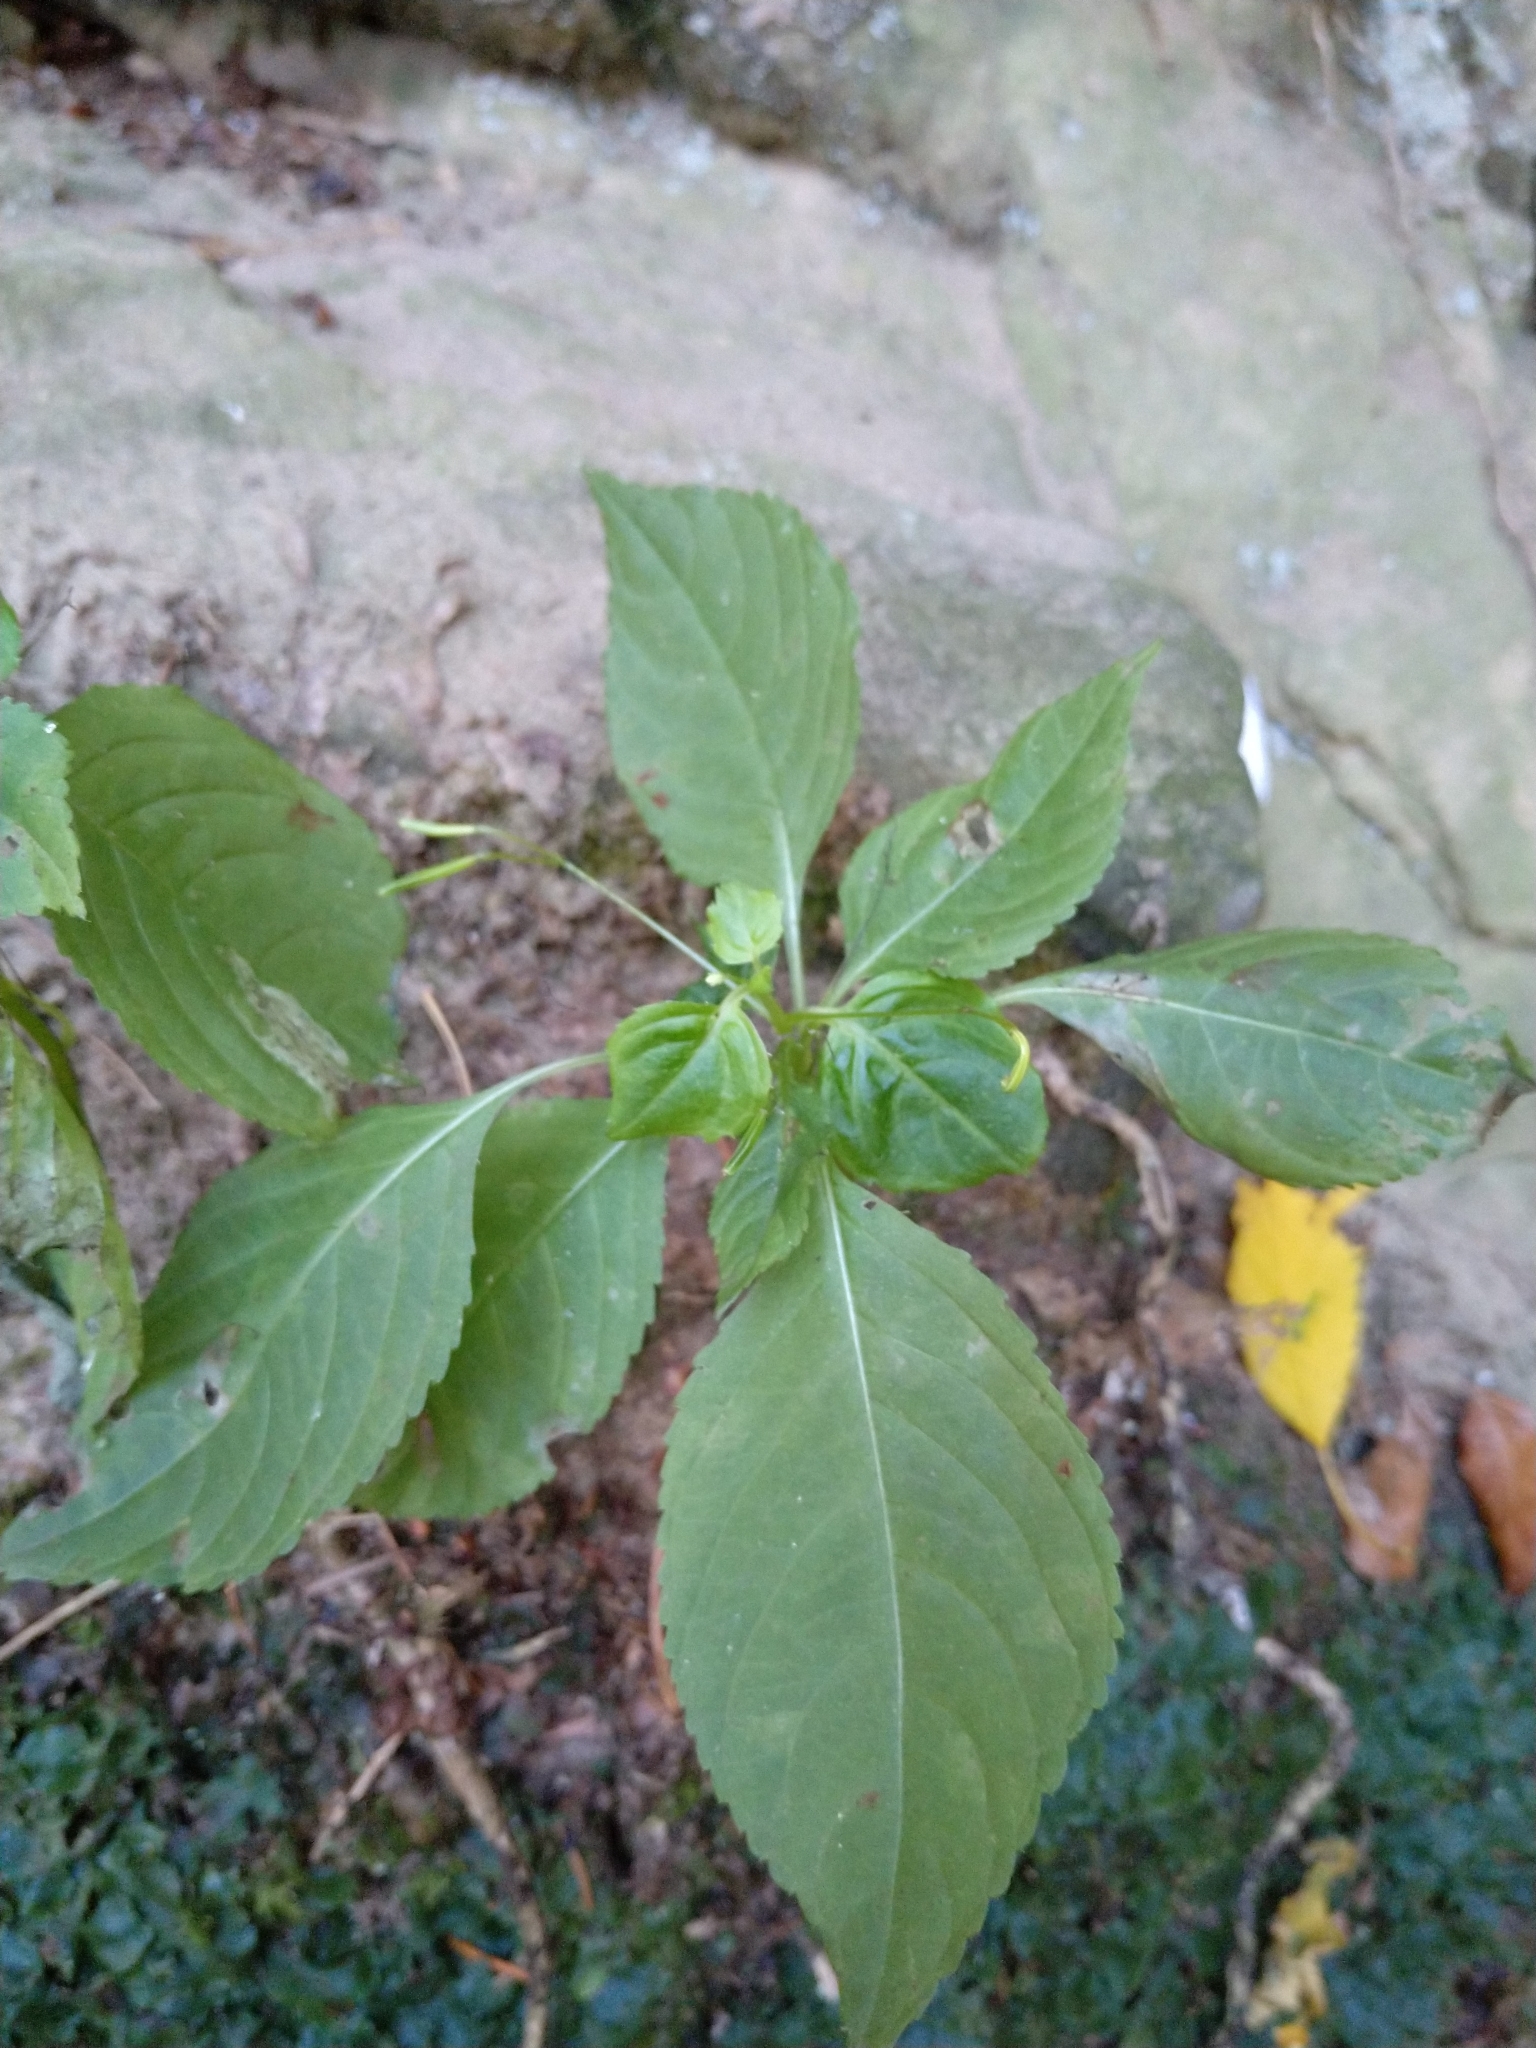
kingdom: Plantae
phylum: Tracheophyta
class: Magnoliopsida
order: Ericales
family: Balsaminaceae
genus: Impatiens
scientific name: Impatiens parviflora
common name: Small balsam
